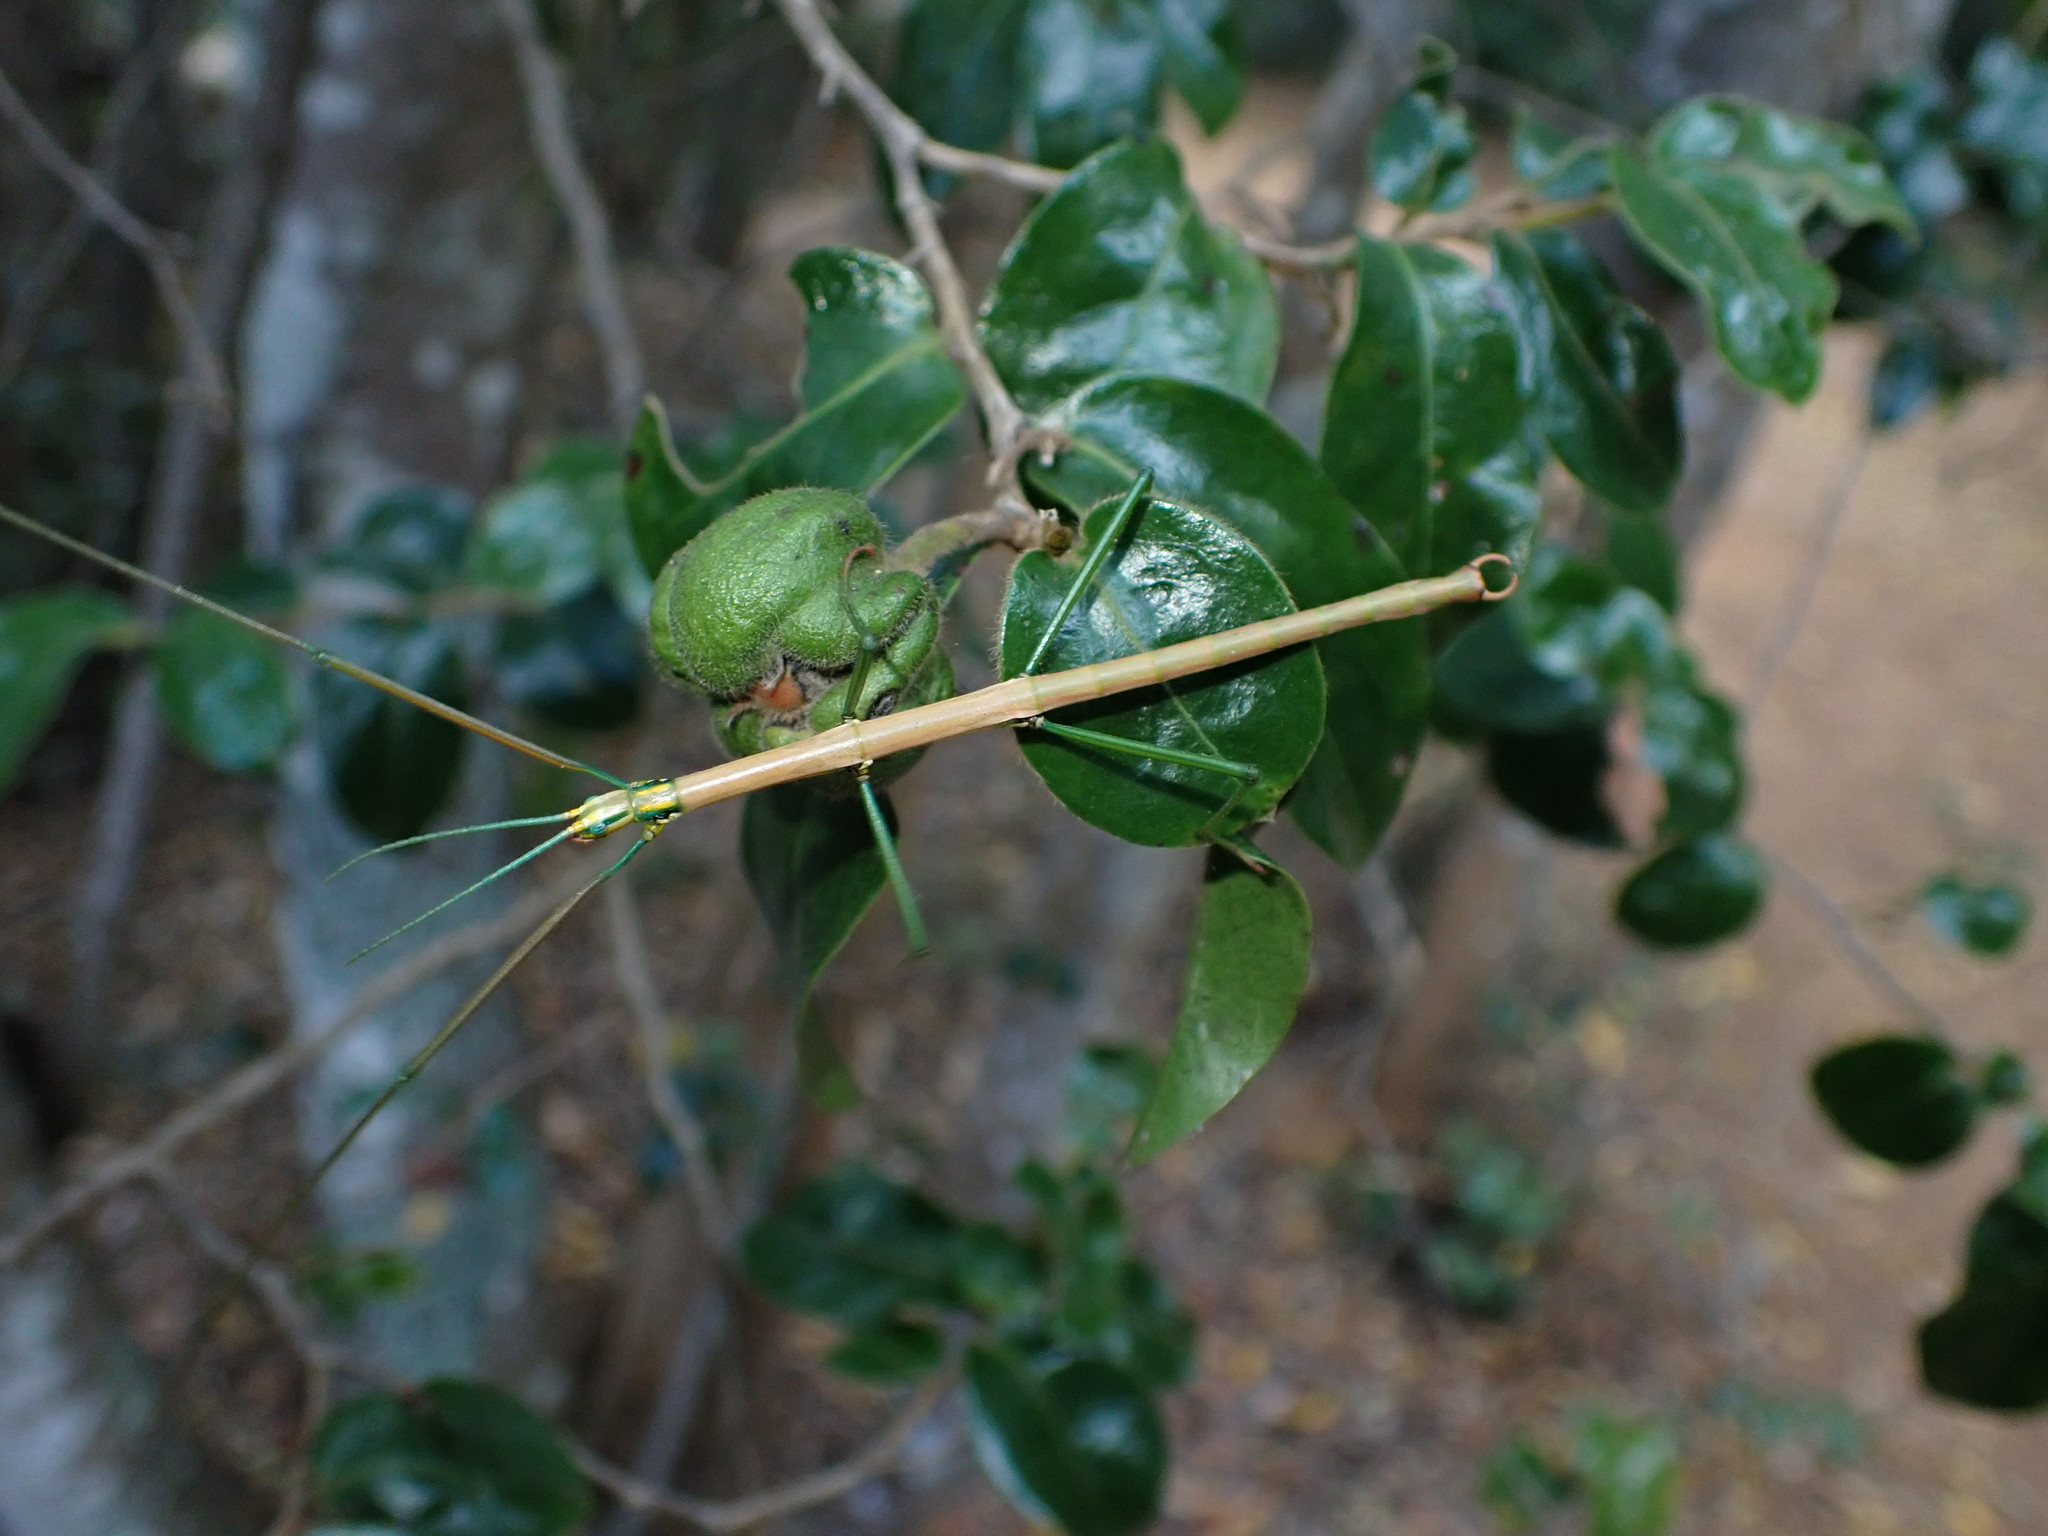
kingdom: Animalia
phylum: Arthropoda
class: Insecta
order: Phasmida
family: Bacillidae
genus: Macynia
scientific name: Macynia labiata
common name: Thunberg's stick insect
